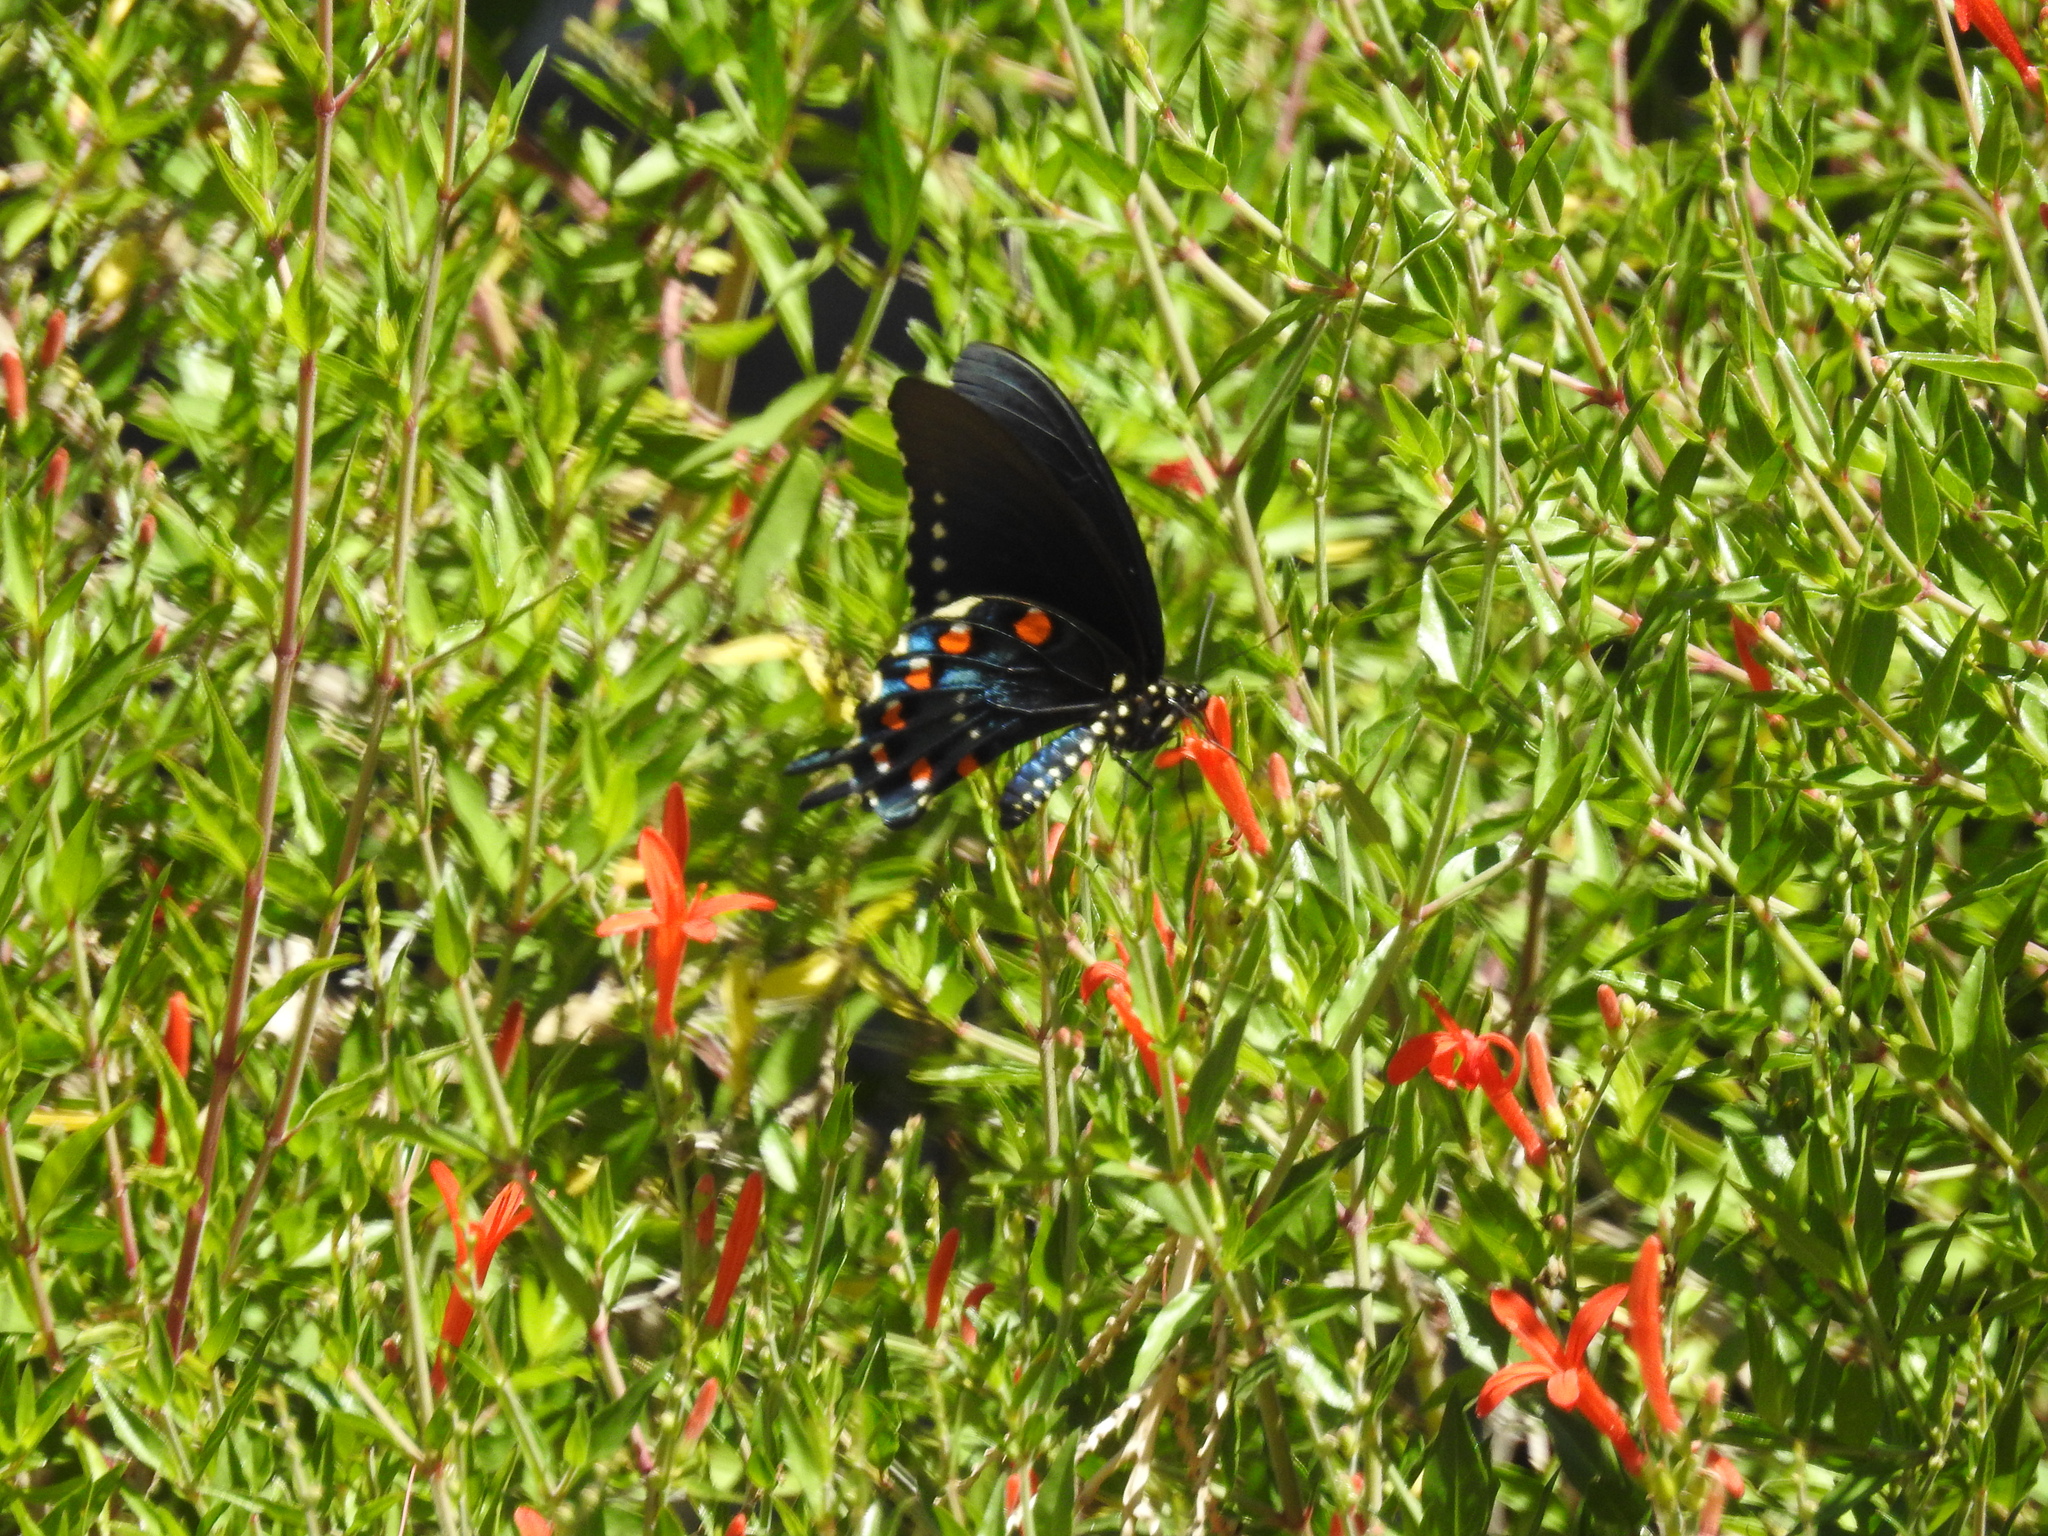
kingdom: Animalia
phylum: Arthropoda
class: Insecta
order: Lepidoptera
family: Papilionidae
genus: Battus
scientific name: Battus philenor
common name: Pipevine swallowtail
